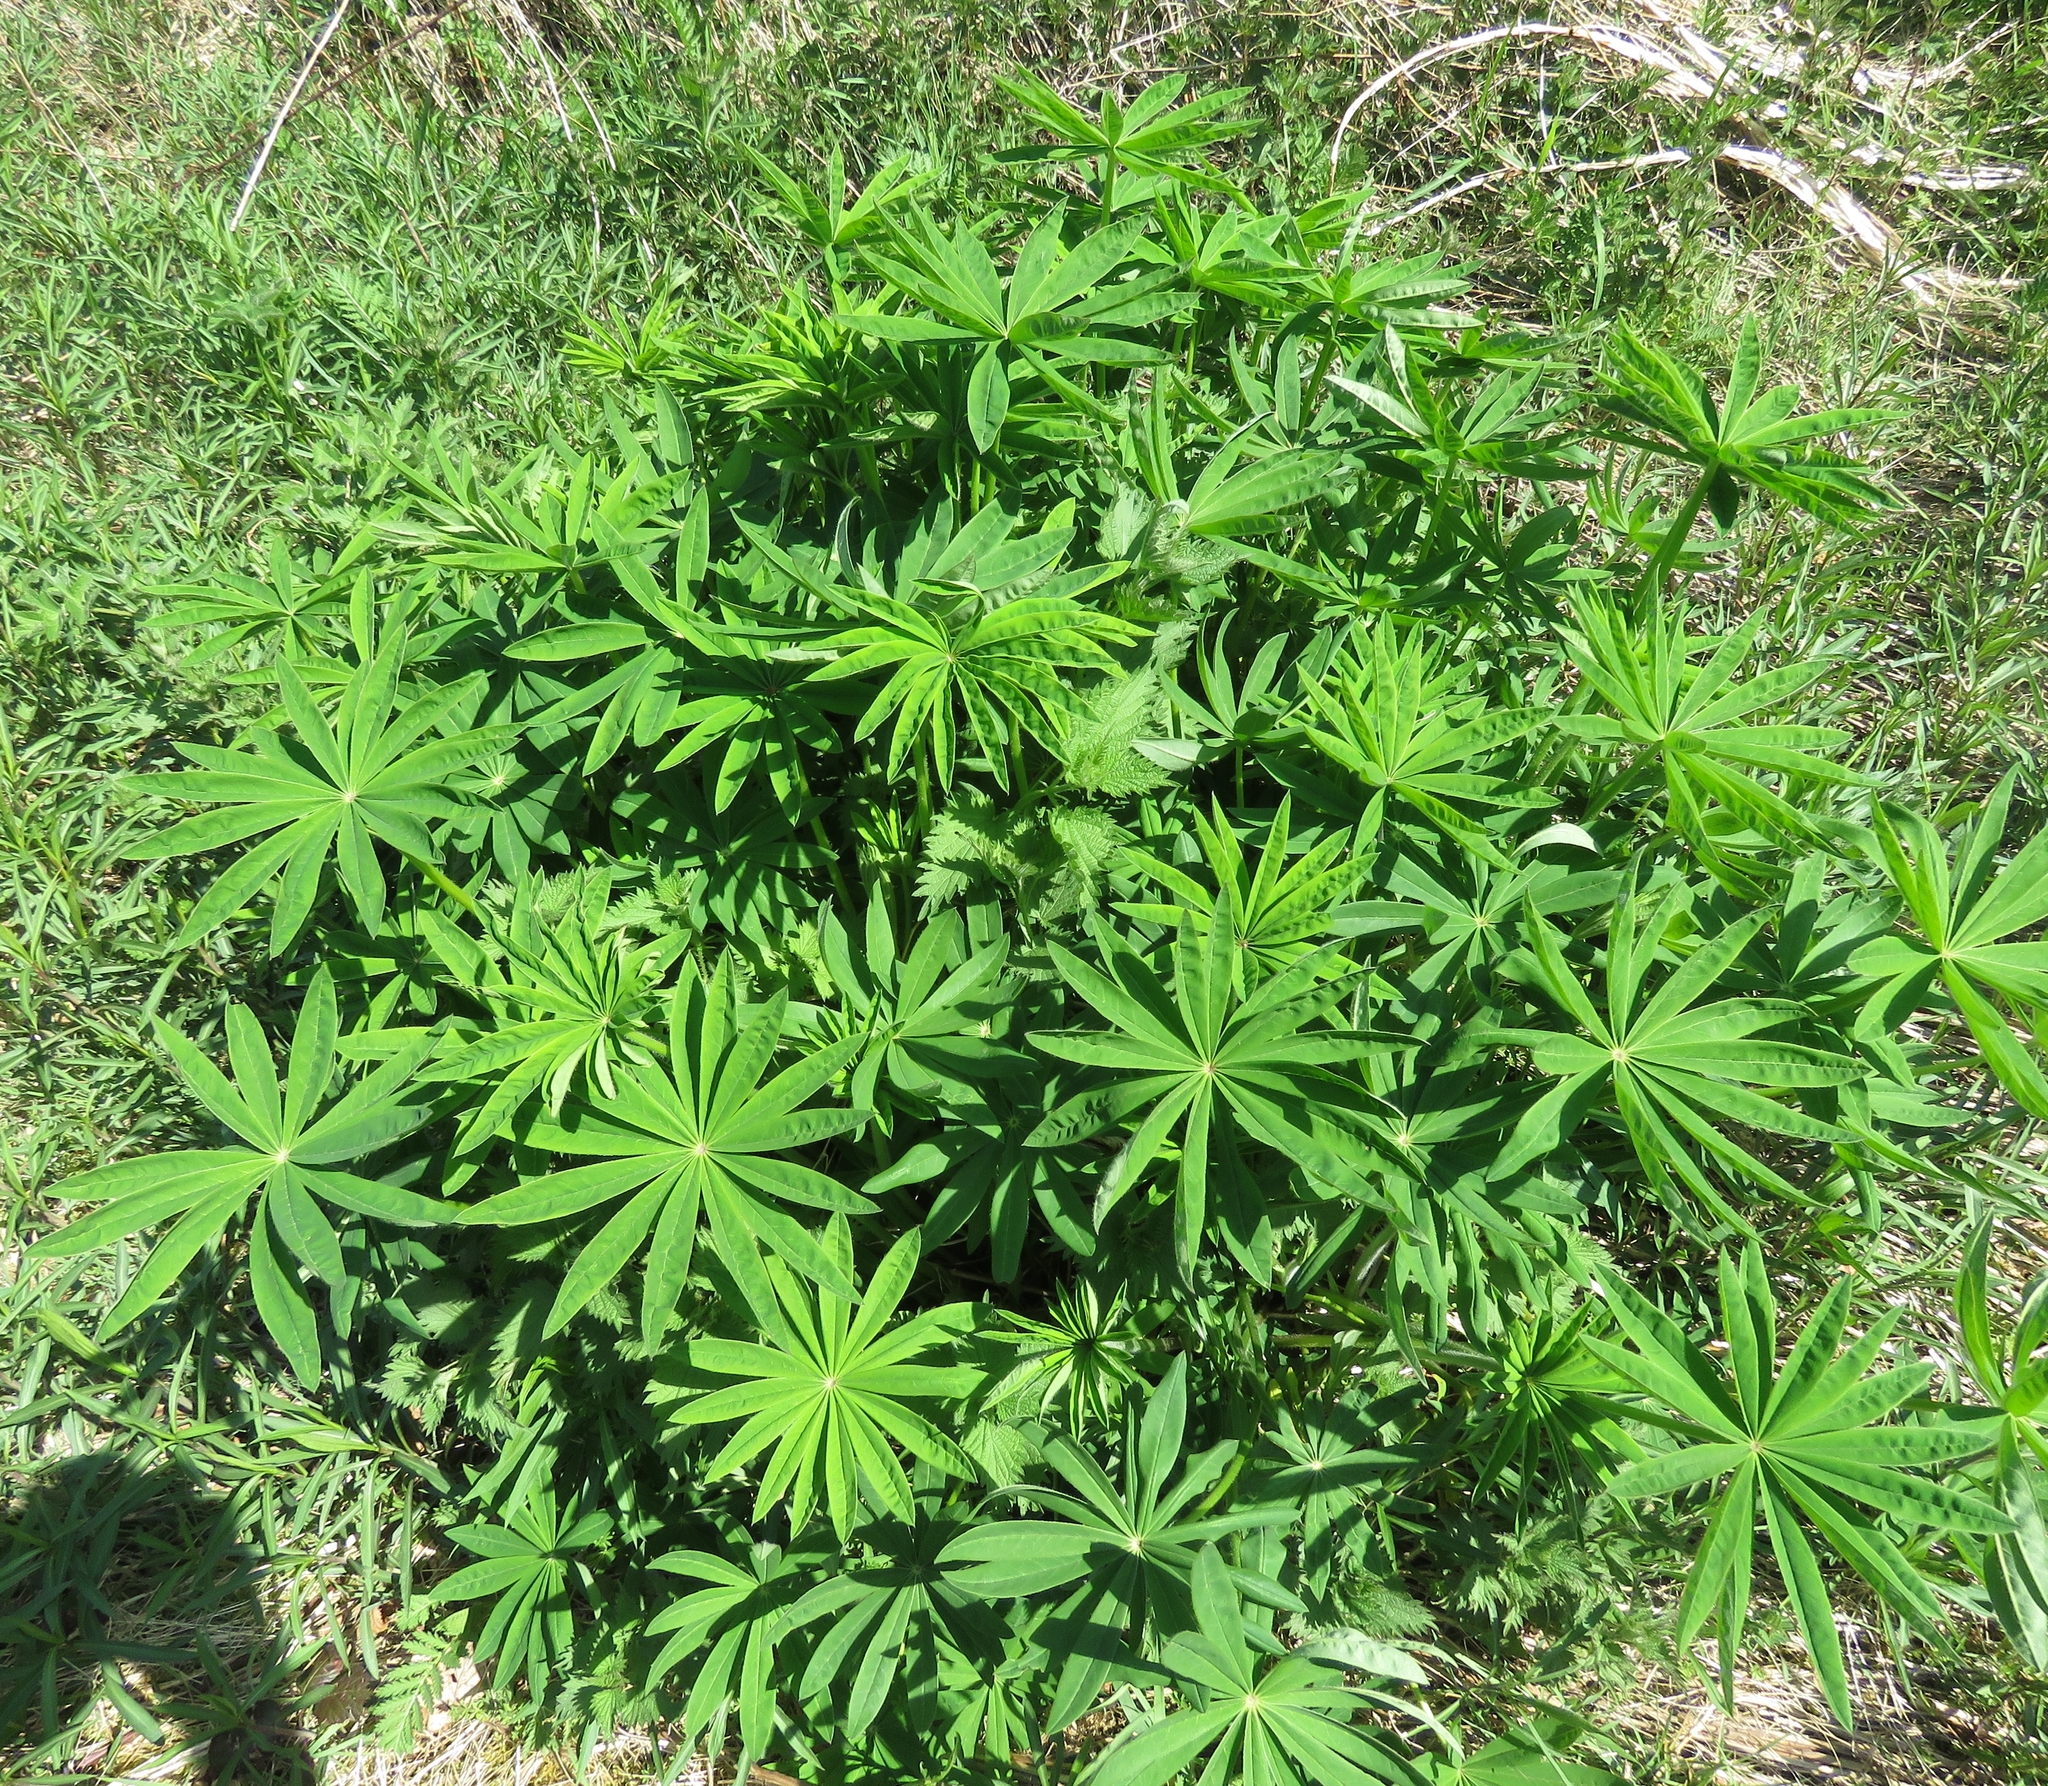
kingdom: Plantae
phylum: Tracheophyta
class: Magnoliopsida
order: Fabales
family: Fabaceae
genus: Lupinus
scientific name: Lupinus regalis
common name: Russell lupin
